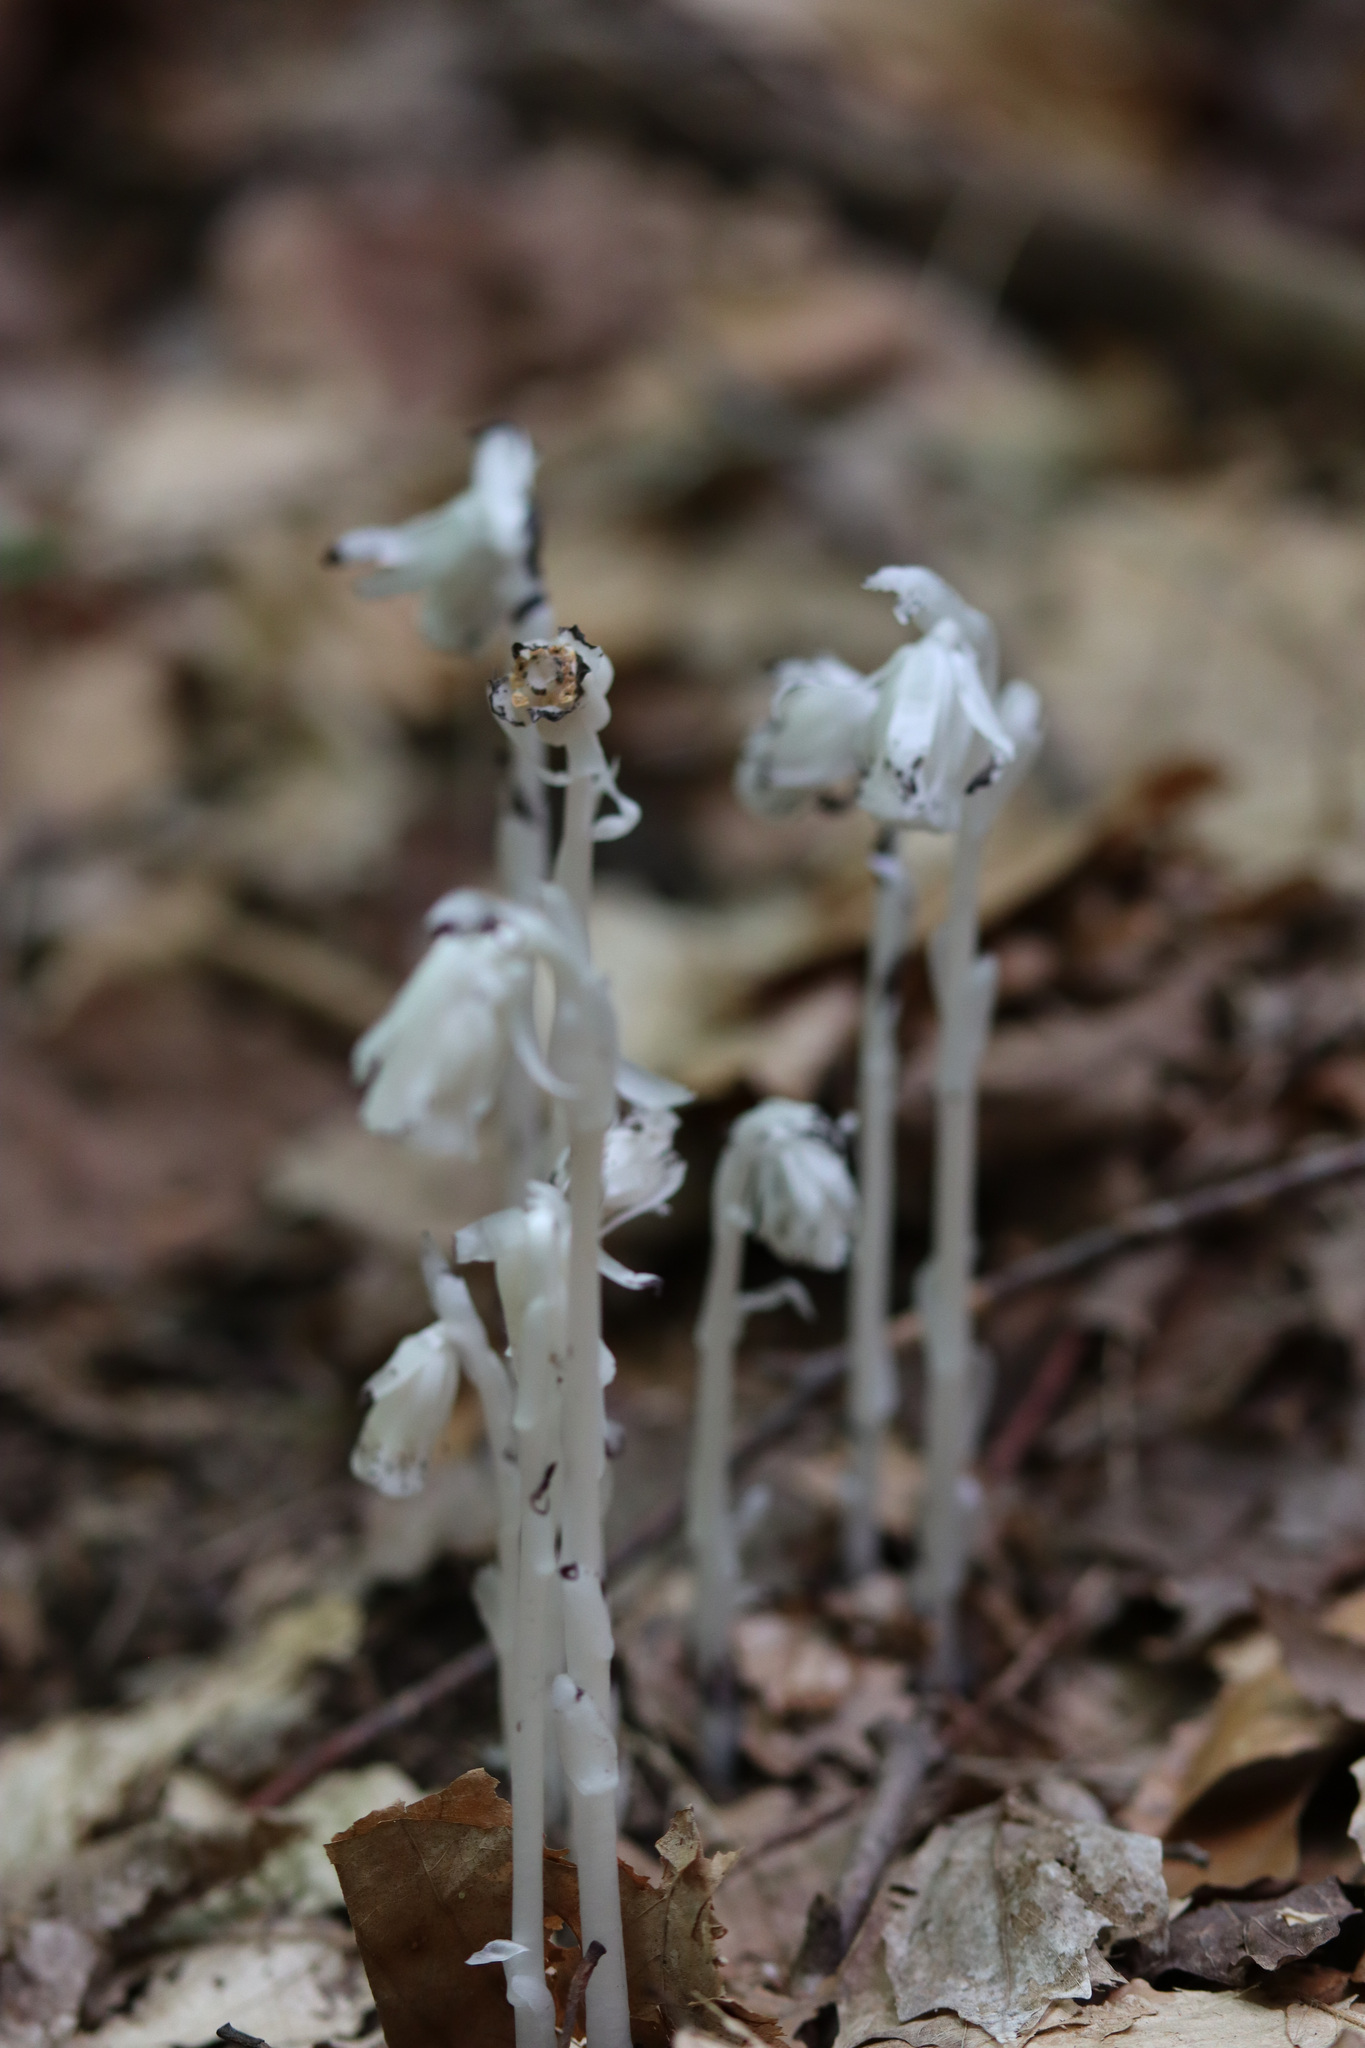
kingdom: Plantae
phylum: Tracheophyta
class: Magnoliopsida
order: Ericales
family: Ericaceae
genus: Monotropa
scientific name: Monotropa uniflora
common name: Convulsion root
